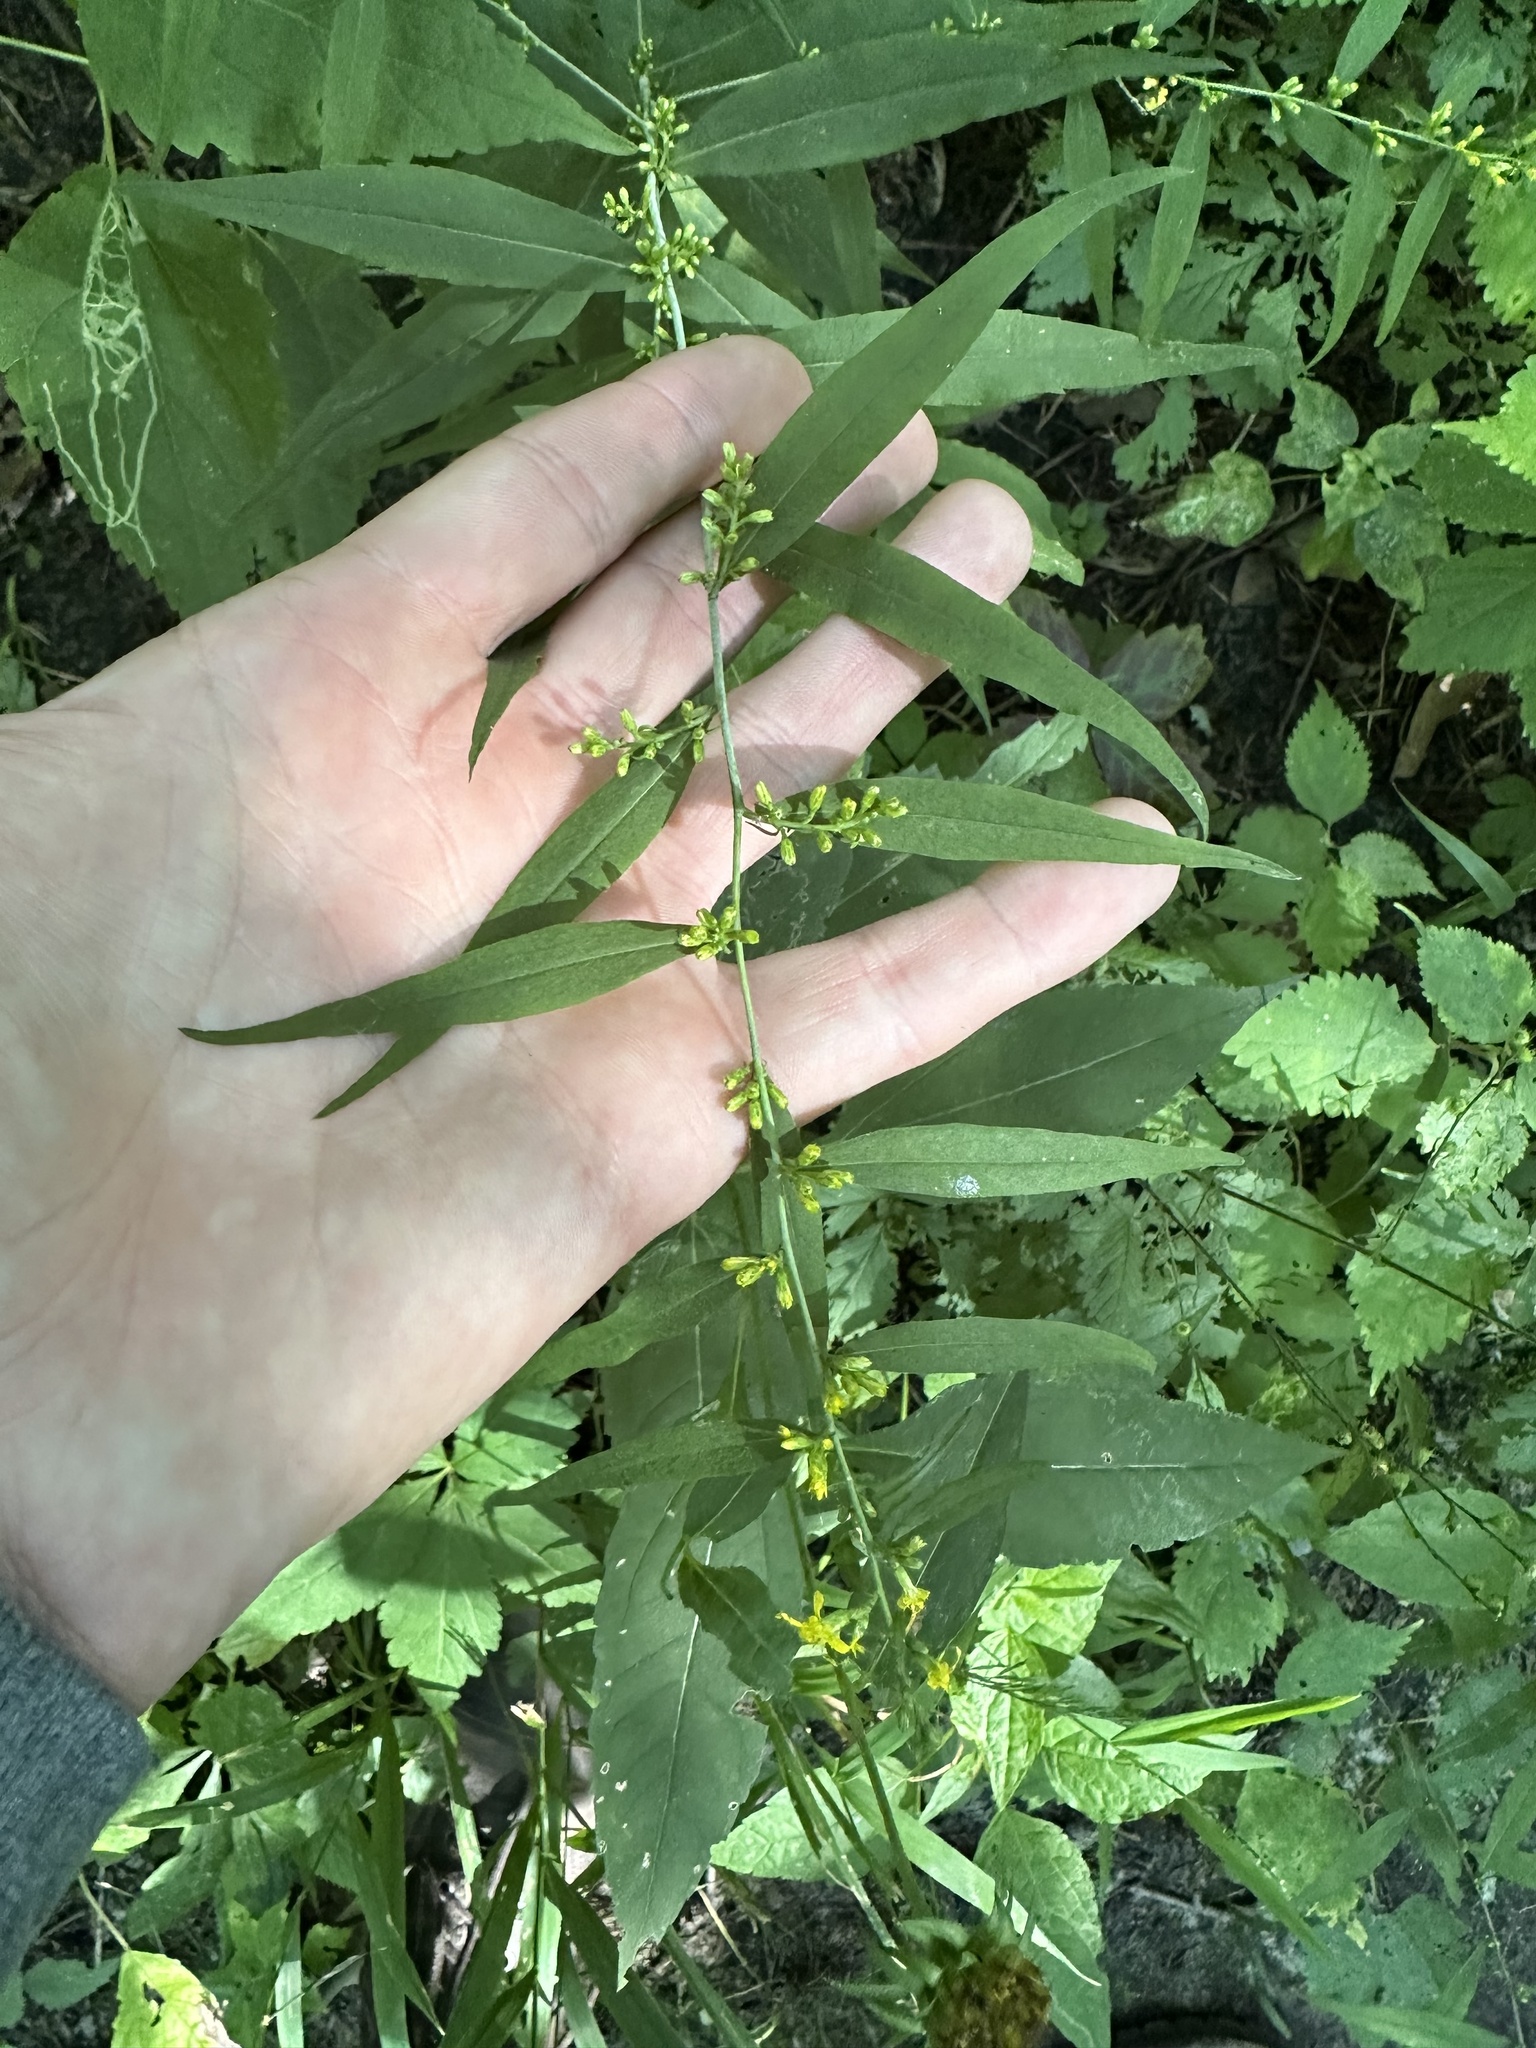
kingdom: Plantae
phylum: Tracheophyta
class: Magnoliopsida
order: Asterales
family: Asteraceae
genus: Solidago
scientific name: Solidago caesia
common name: Woodland goldenrod
